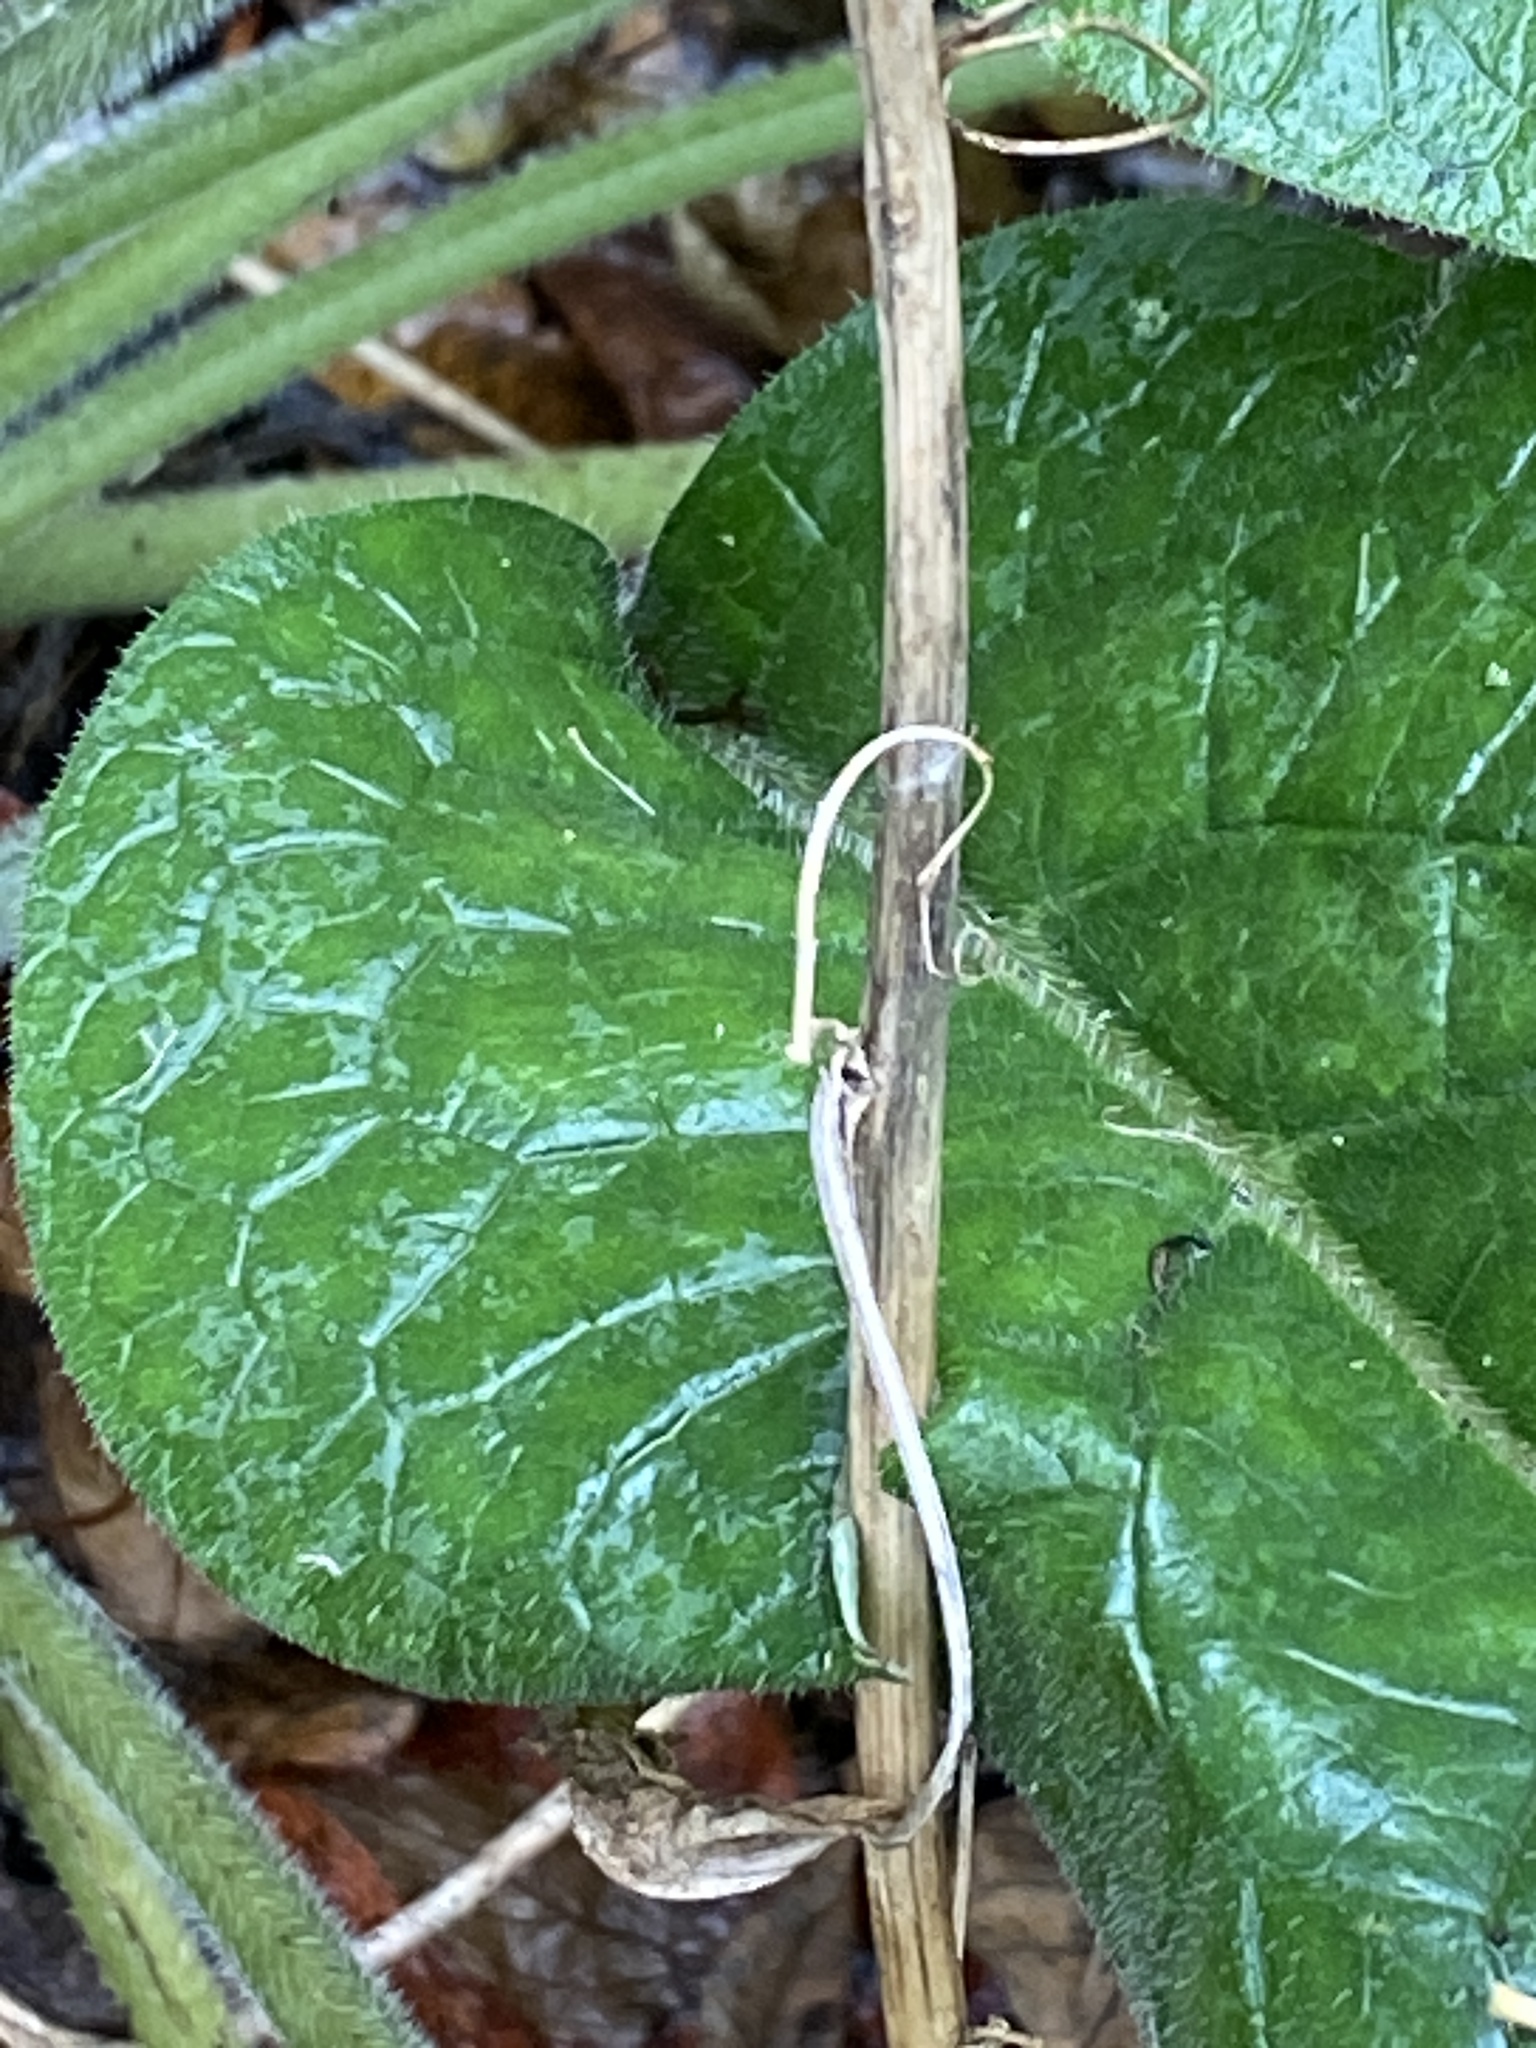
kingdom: Plantae
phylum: Tracheophyta
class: Magnoliopsida
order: Boraginales
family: Boraginaceae
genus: Symphytum
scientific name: Symphytum officinale
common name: Common comfrey
